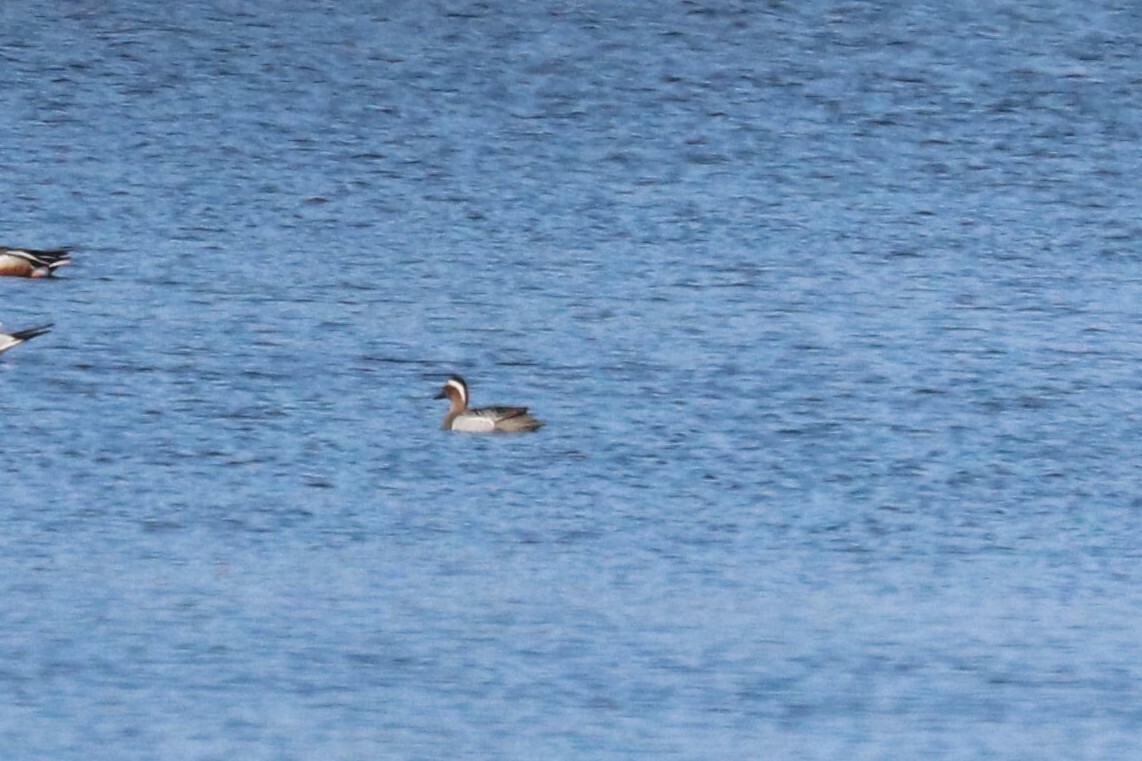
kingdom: Animalia
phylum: Chordata
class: Aves
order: Anseriformes
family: Anatidae
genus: Spatula
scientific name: Spatula querquedula
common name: Garganey
